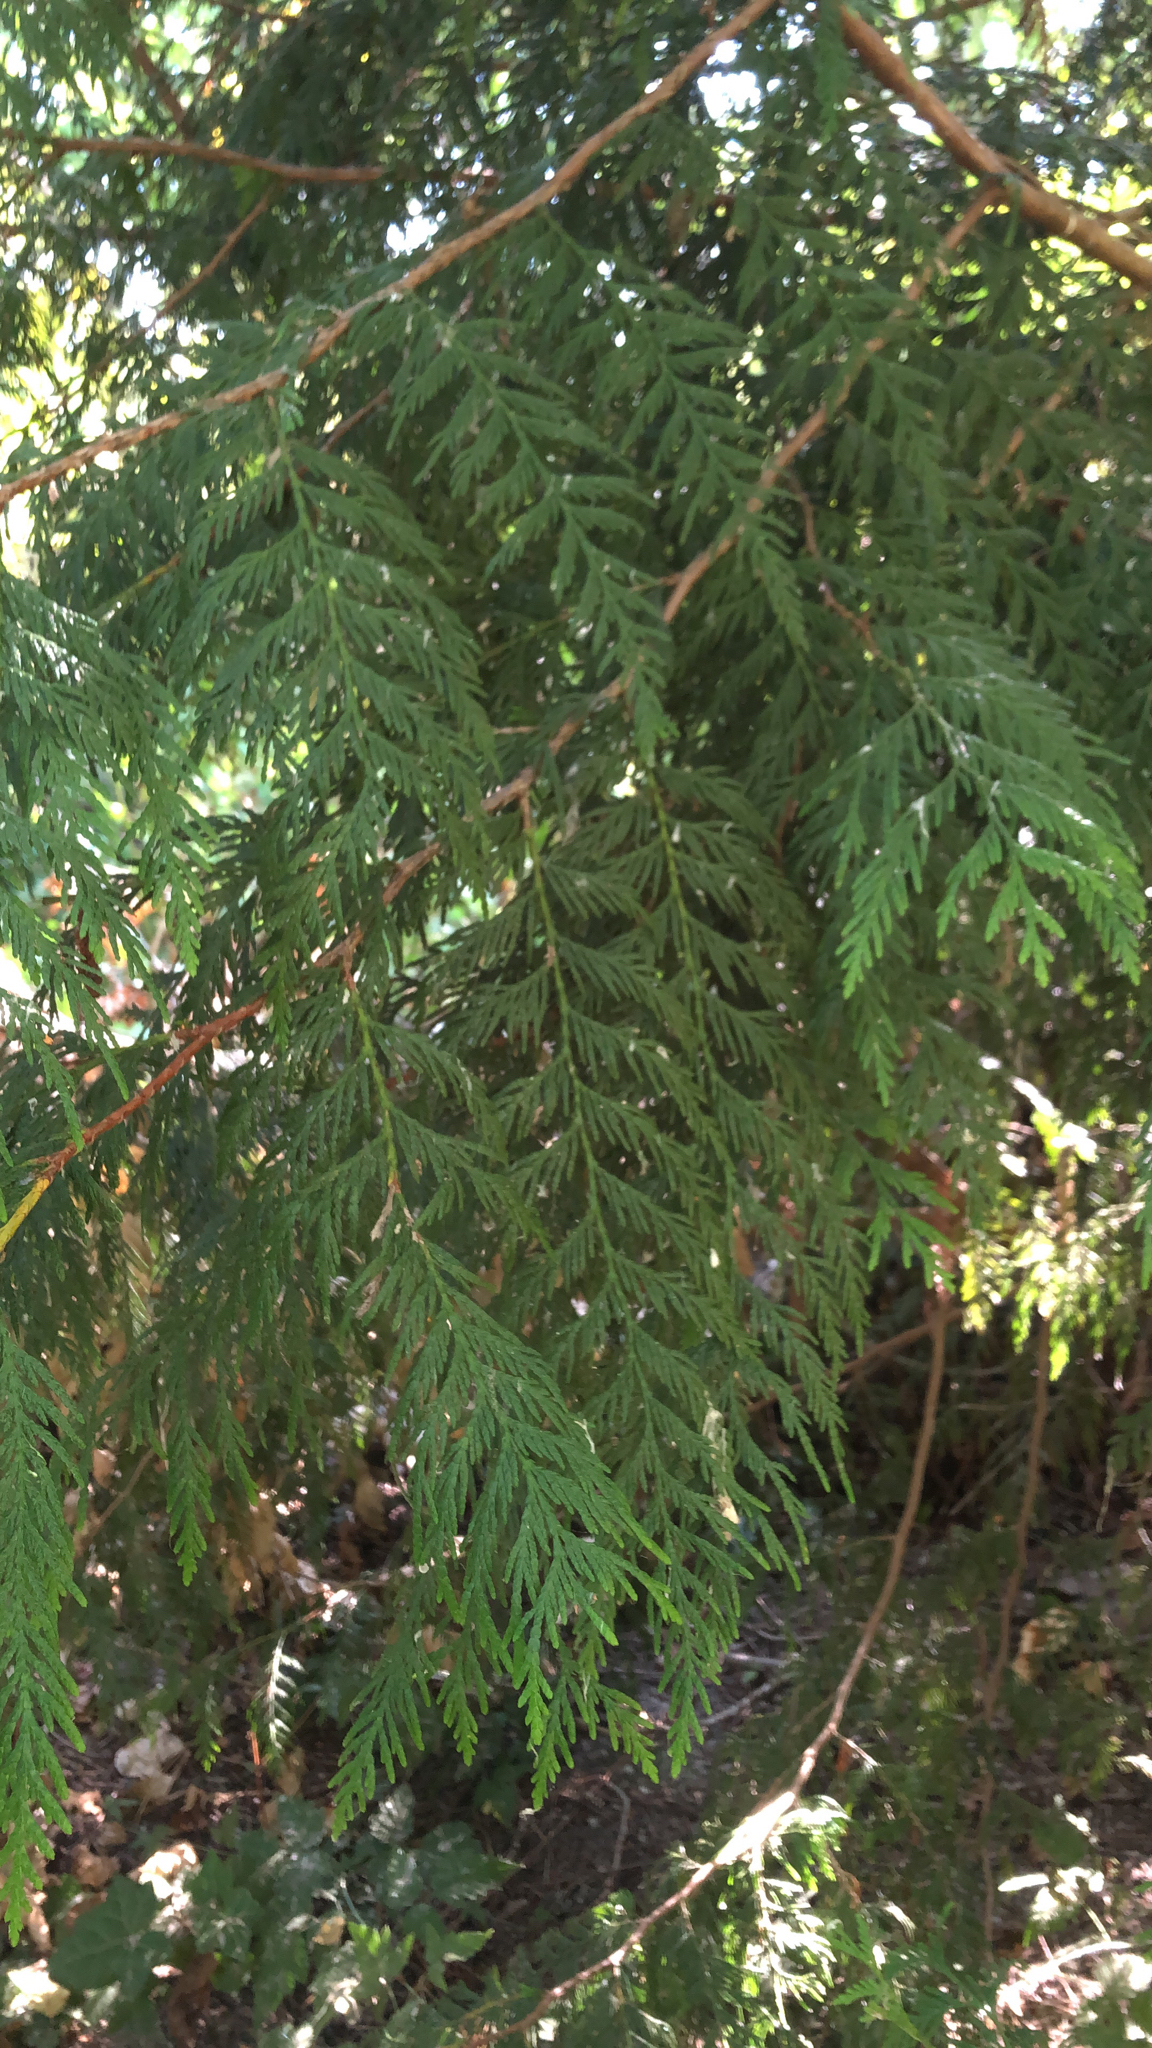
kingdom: Plantae
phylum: Tracheophyta
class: Pinopsida
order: Pinales
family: Cupressaceae
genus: Thuja
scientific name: Thuja plicata
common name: Western red-cedar
